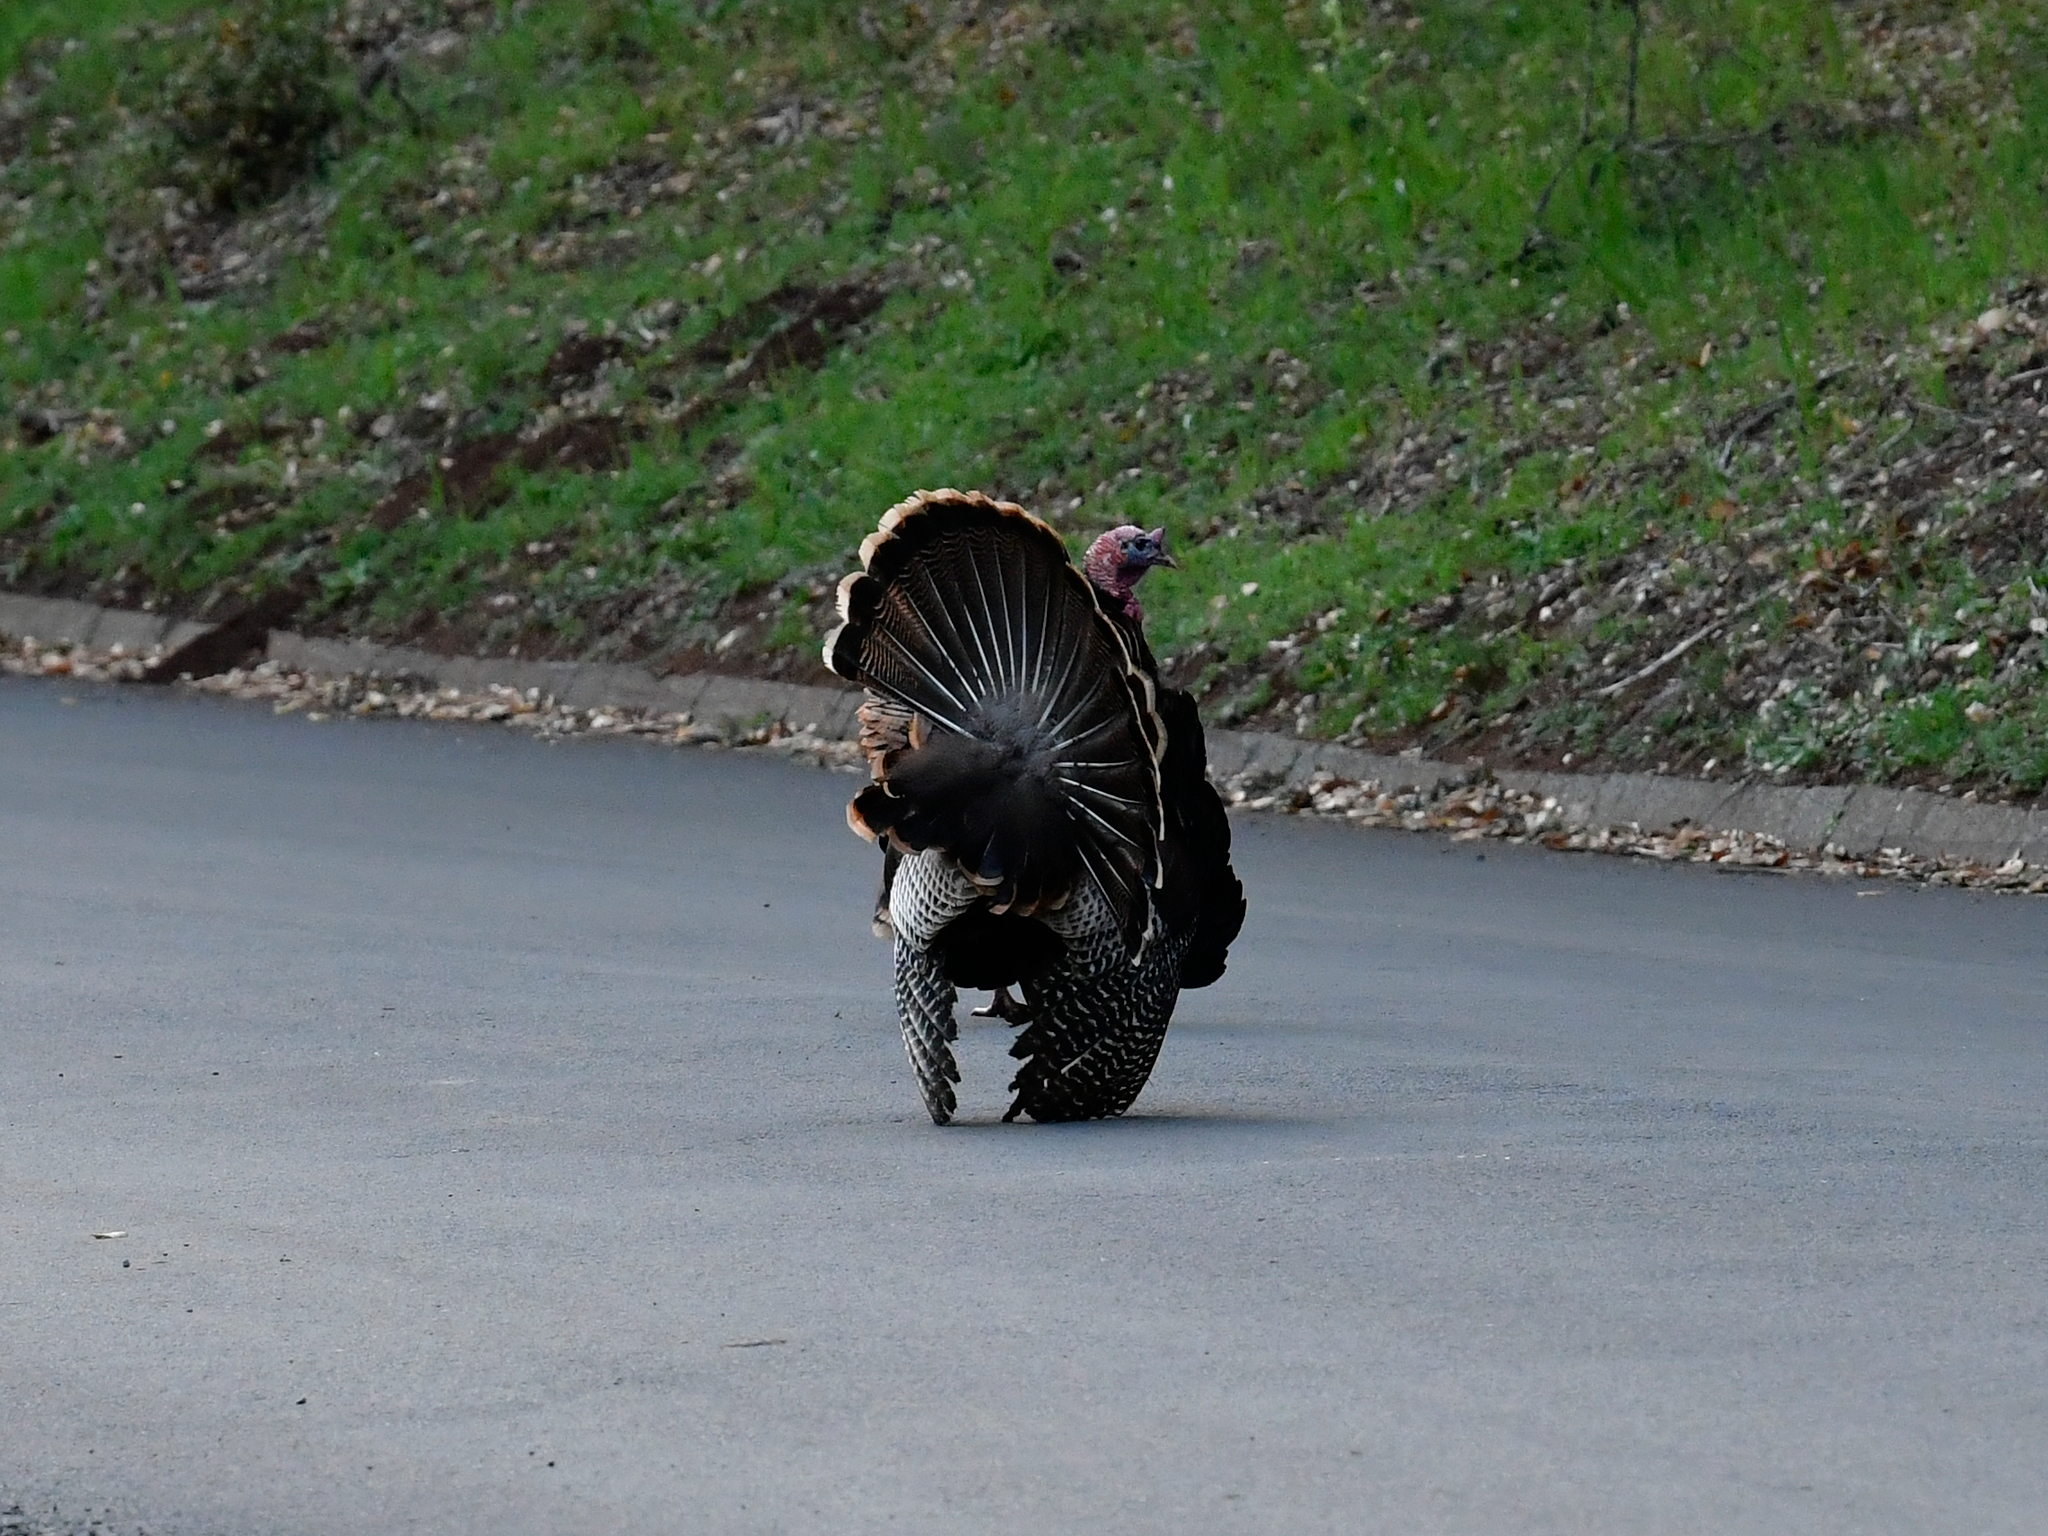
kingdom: Animalia
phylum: Chordata
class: Aves
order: Galliformes
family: Phasianidae
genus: Meleagris
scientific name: Meleagris gallopavo
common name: Wild turkey
